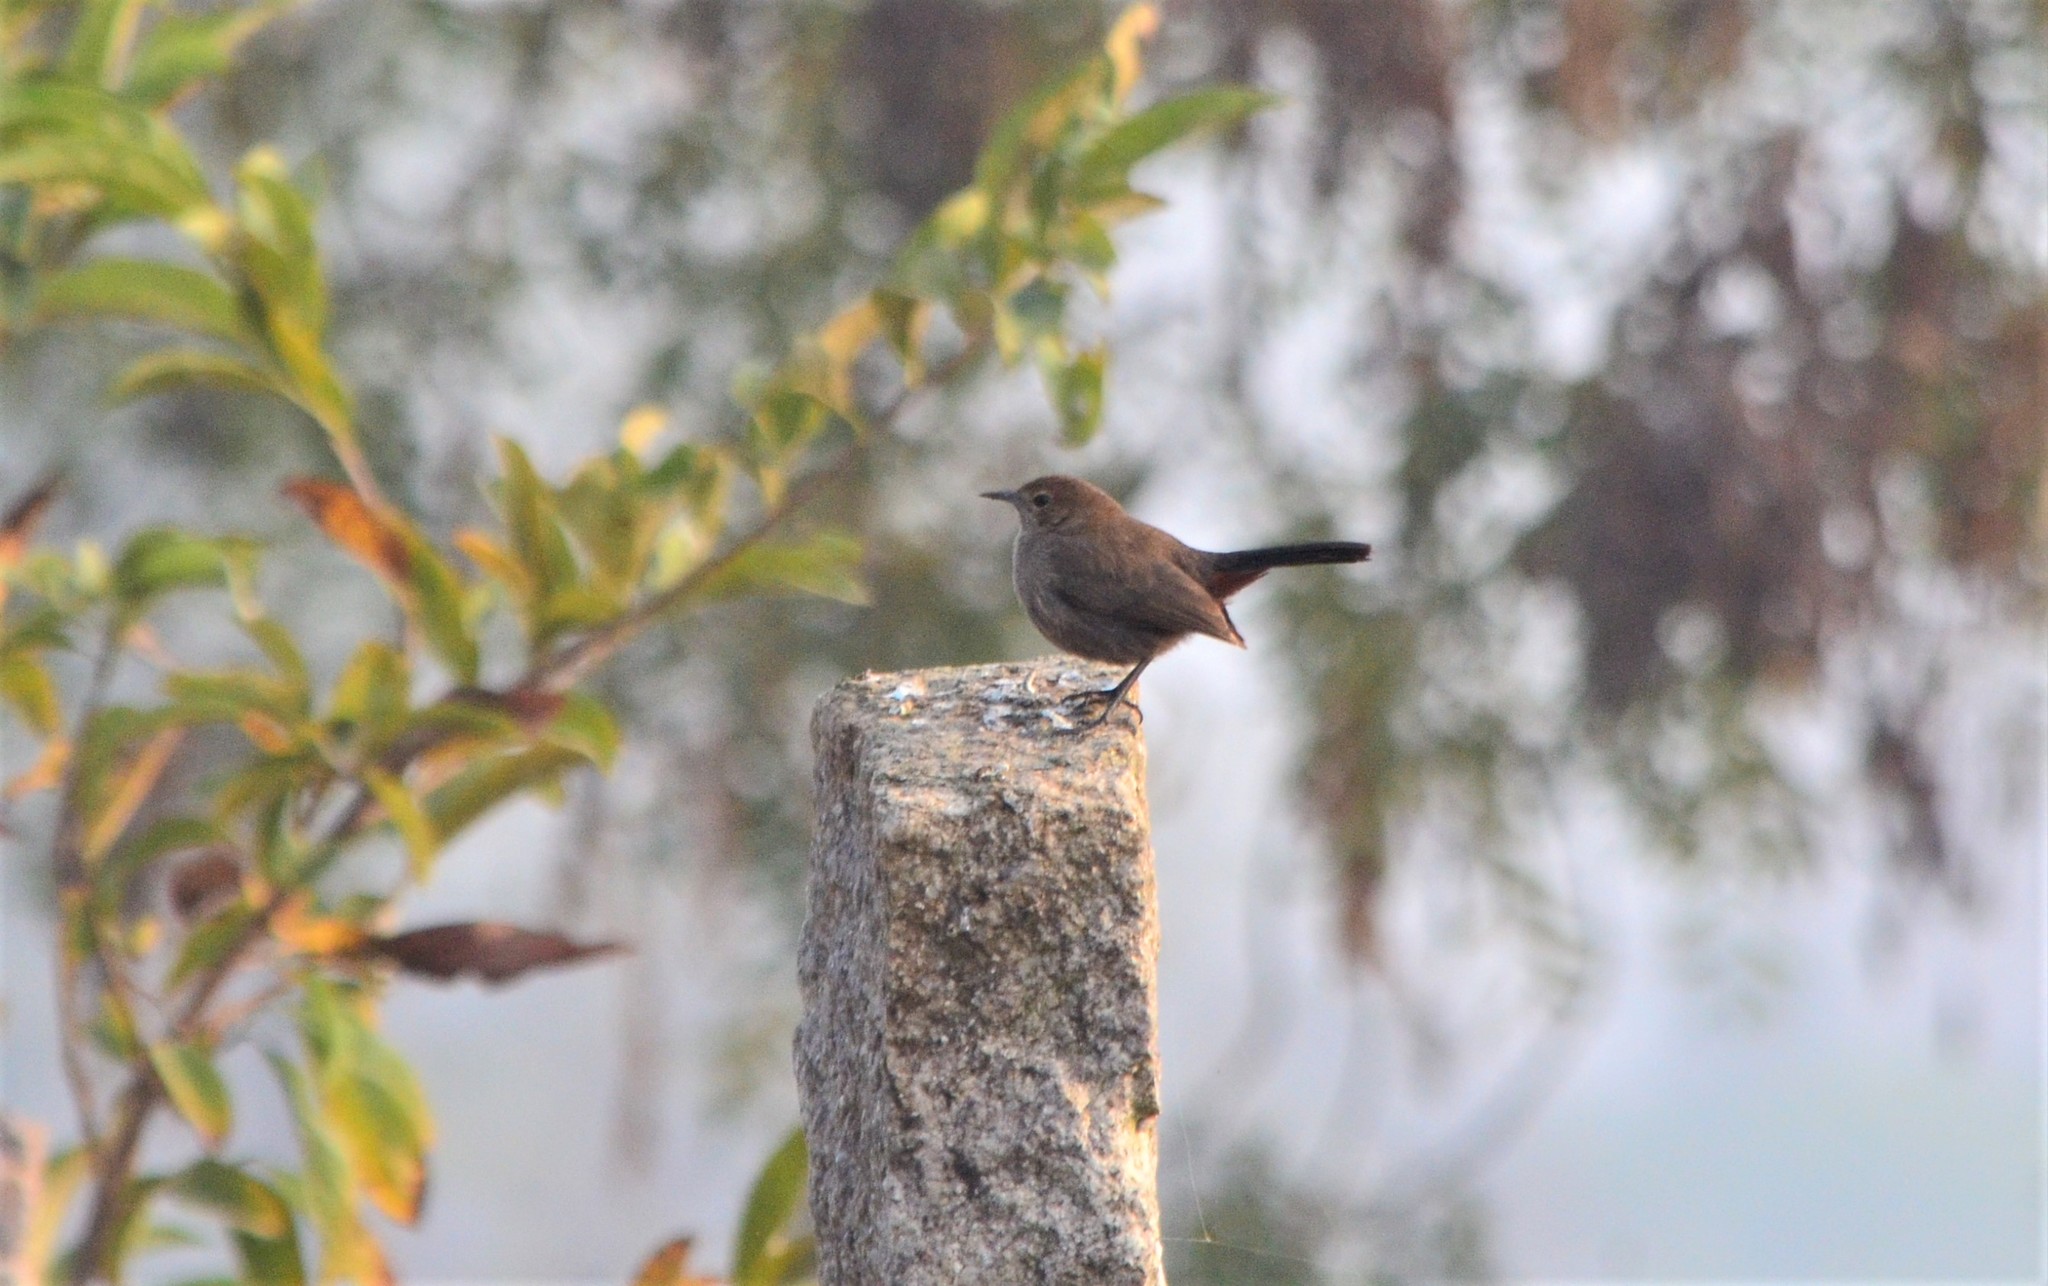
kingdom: Animalia
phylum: Chordata
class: Aves
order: Passeriformes
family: Muscicapidae
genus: Saxicoloides
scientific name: Saxicoloides fulicatus
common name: Indian robin
